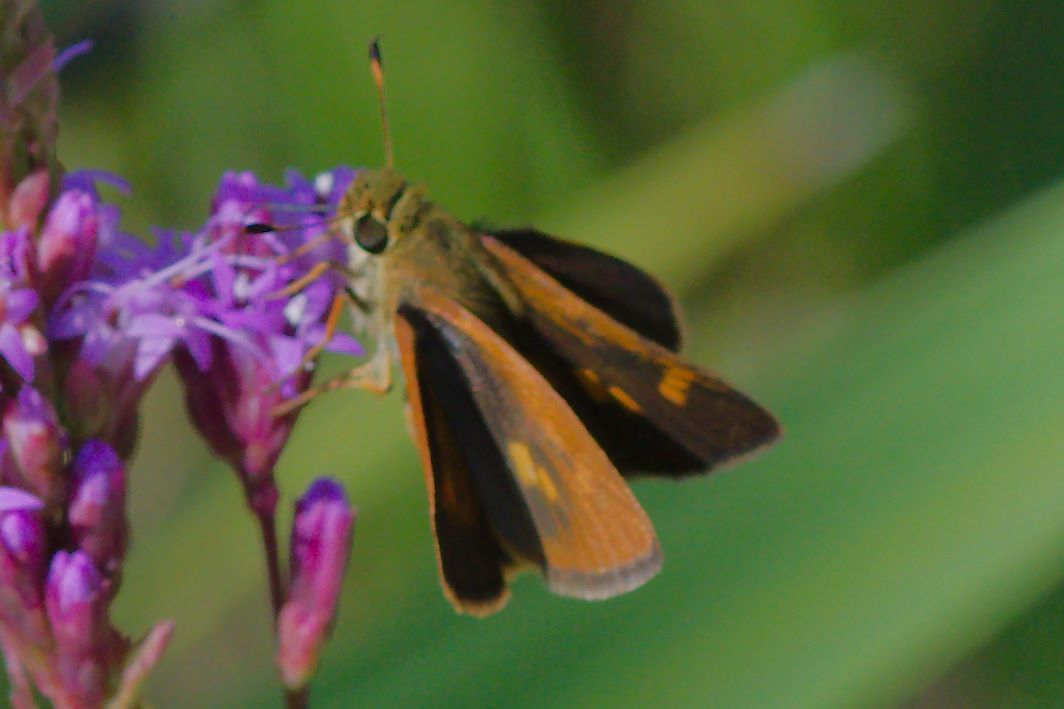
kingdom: Animalia
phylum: Arthropoda
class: Insecta
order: Lepidoptera
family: Hesperiidae
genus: Polites
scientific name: Polites otho
